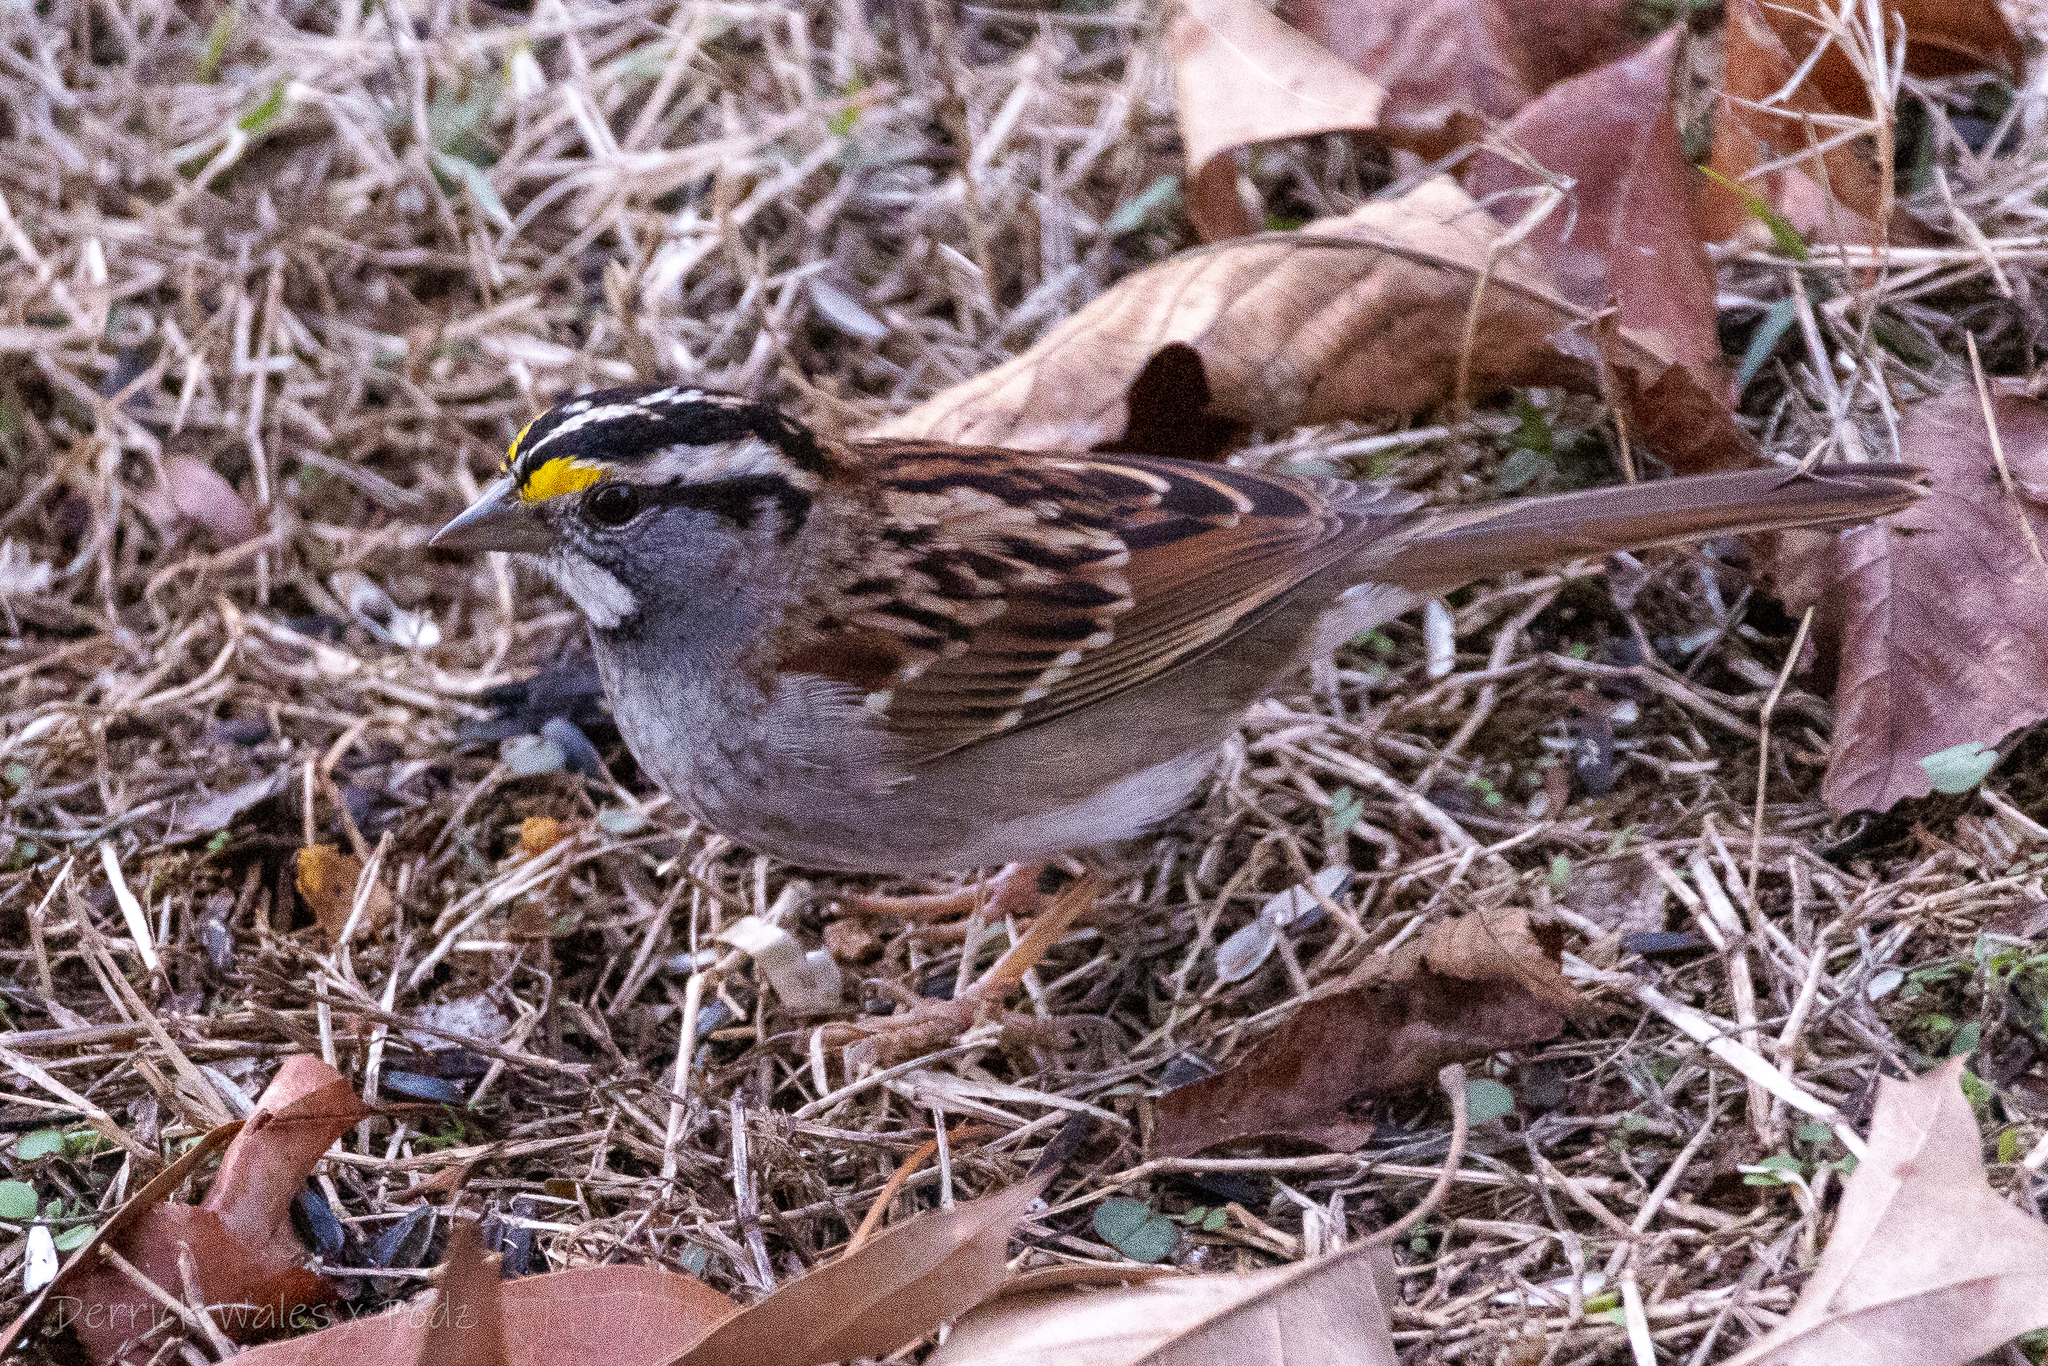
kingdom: Animalia
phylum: Chordata
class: Aves
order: Passeriformes
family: Passerellidae
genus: Zonotrichia
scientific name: Zonotrichia albicollis
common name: White-throated sparrow
